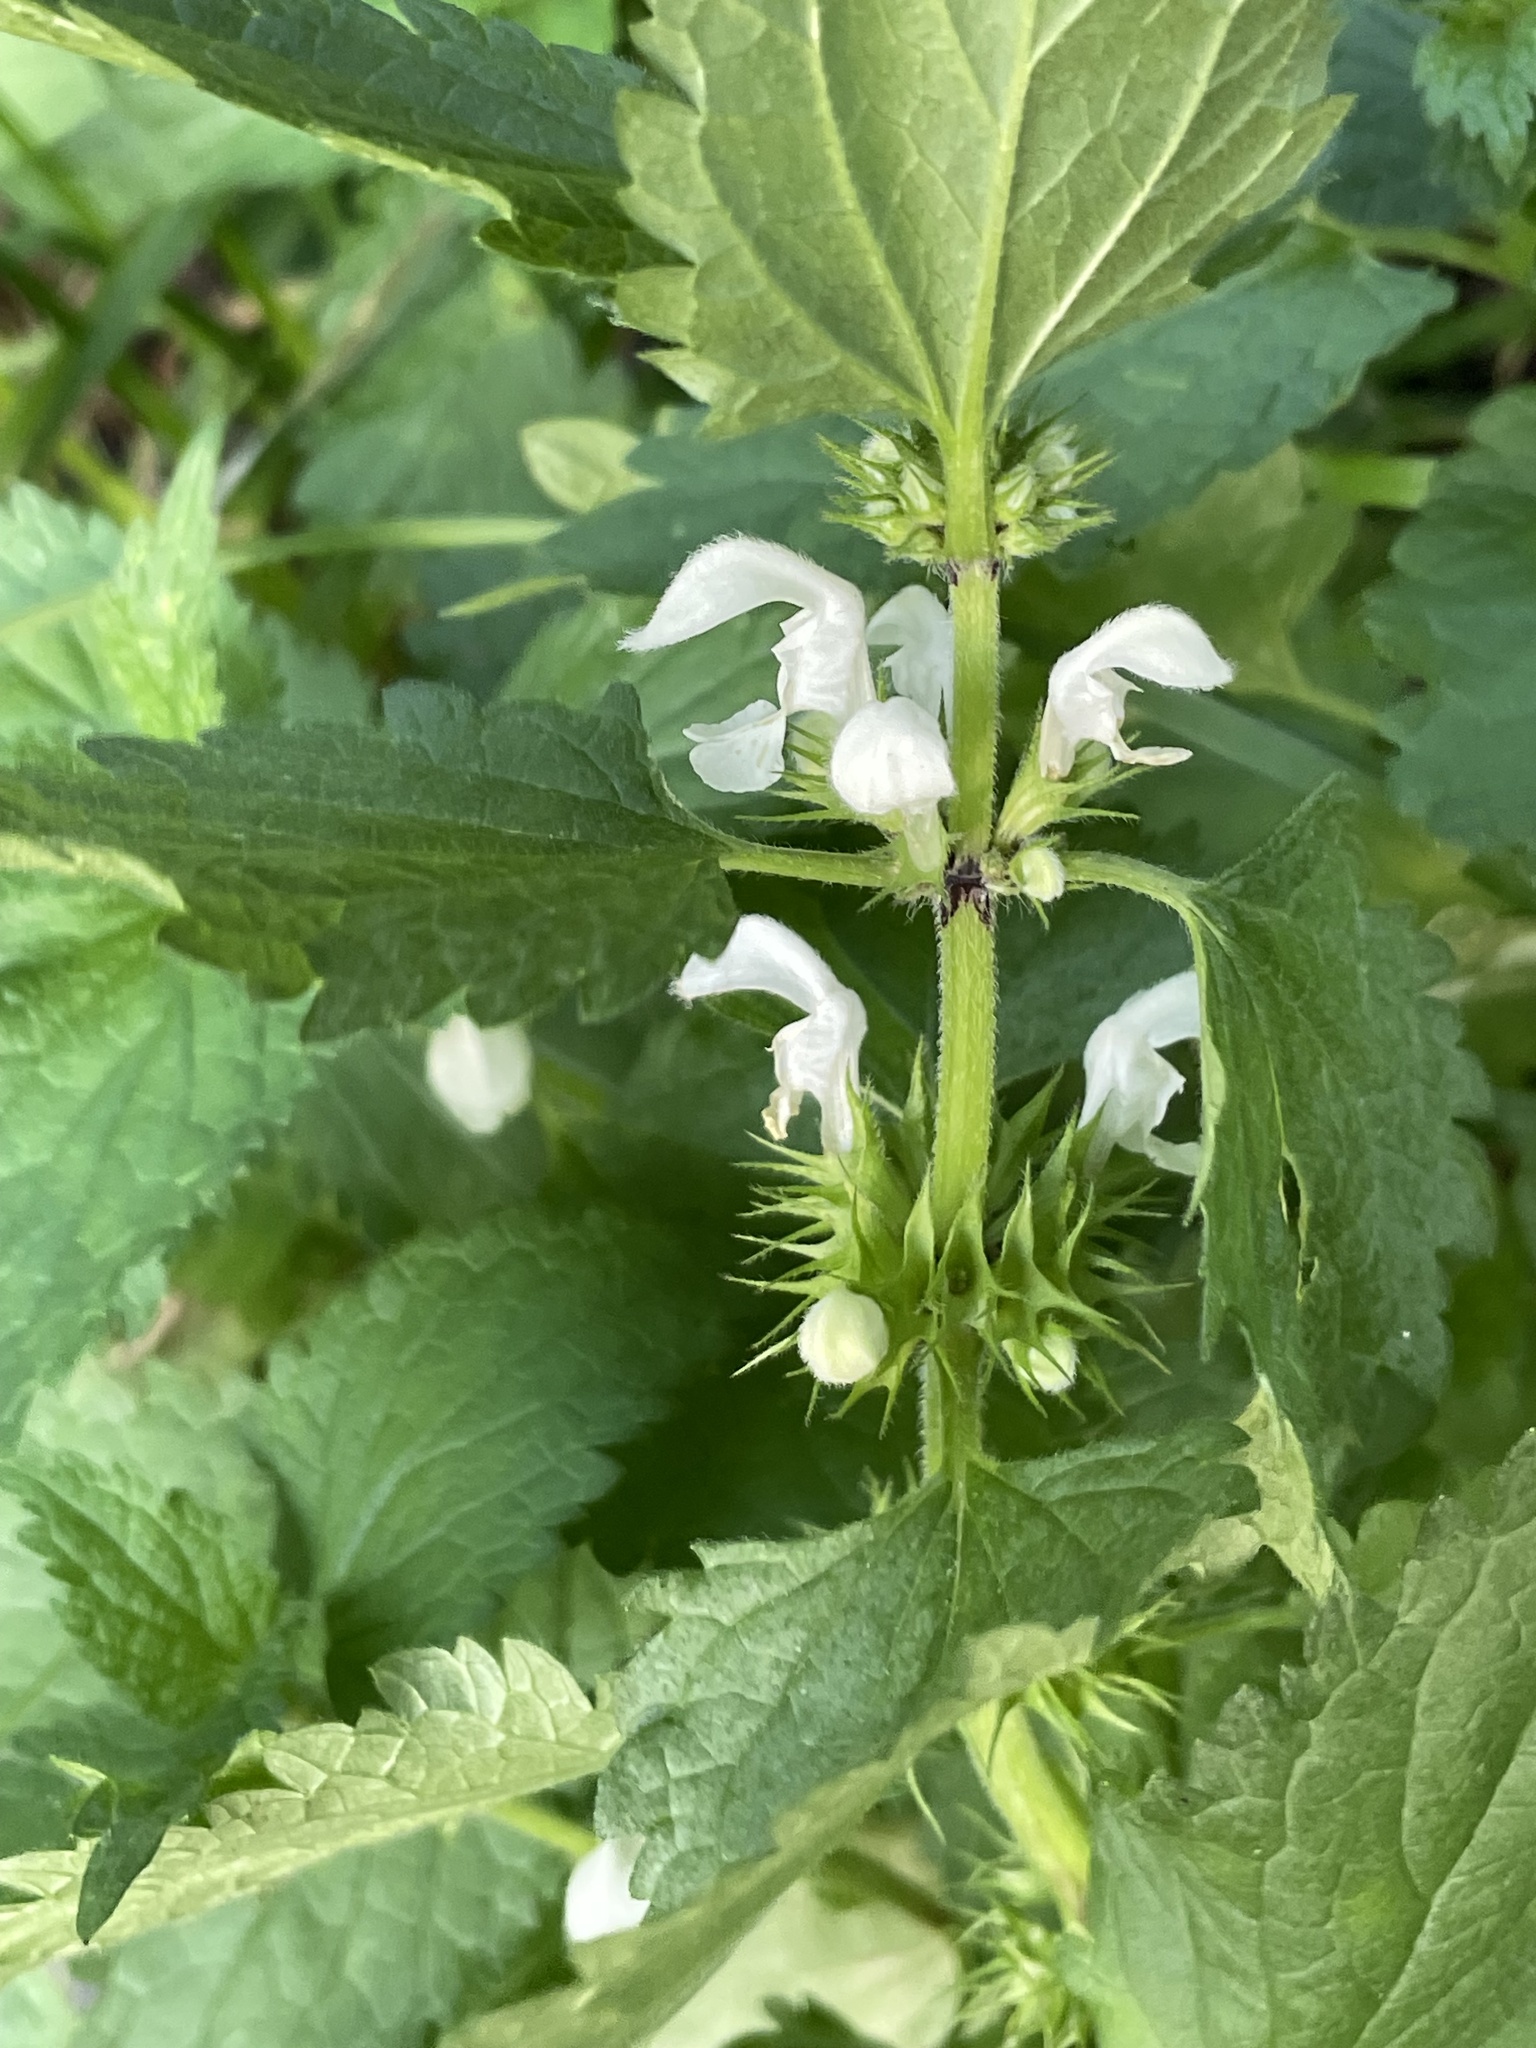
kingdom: Plantae
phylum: Tracheophyta
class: Magnoliopsida
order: Lamiales
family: Lamiaceae
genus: Lamium
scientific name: Lamium album
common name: White dead-nettle
